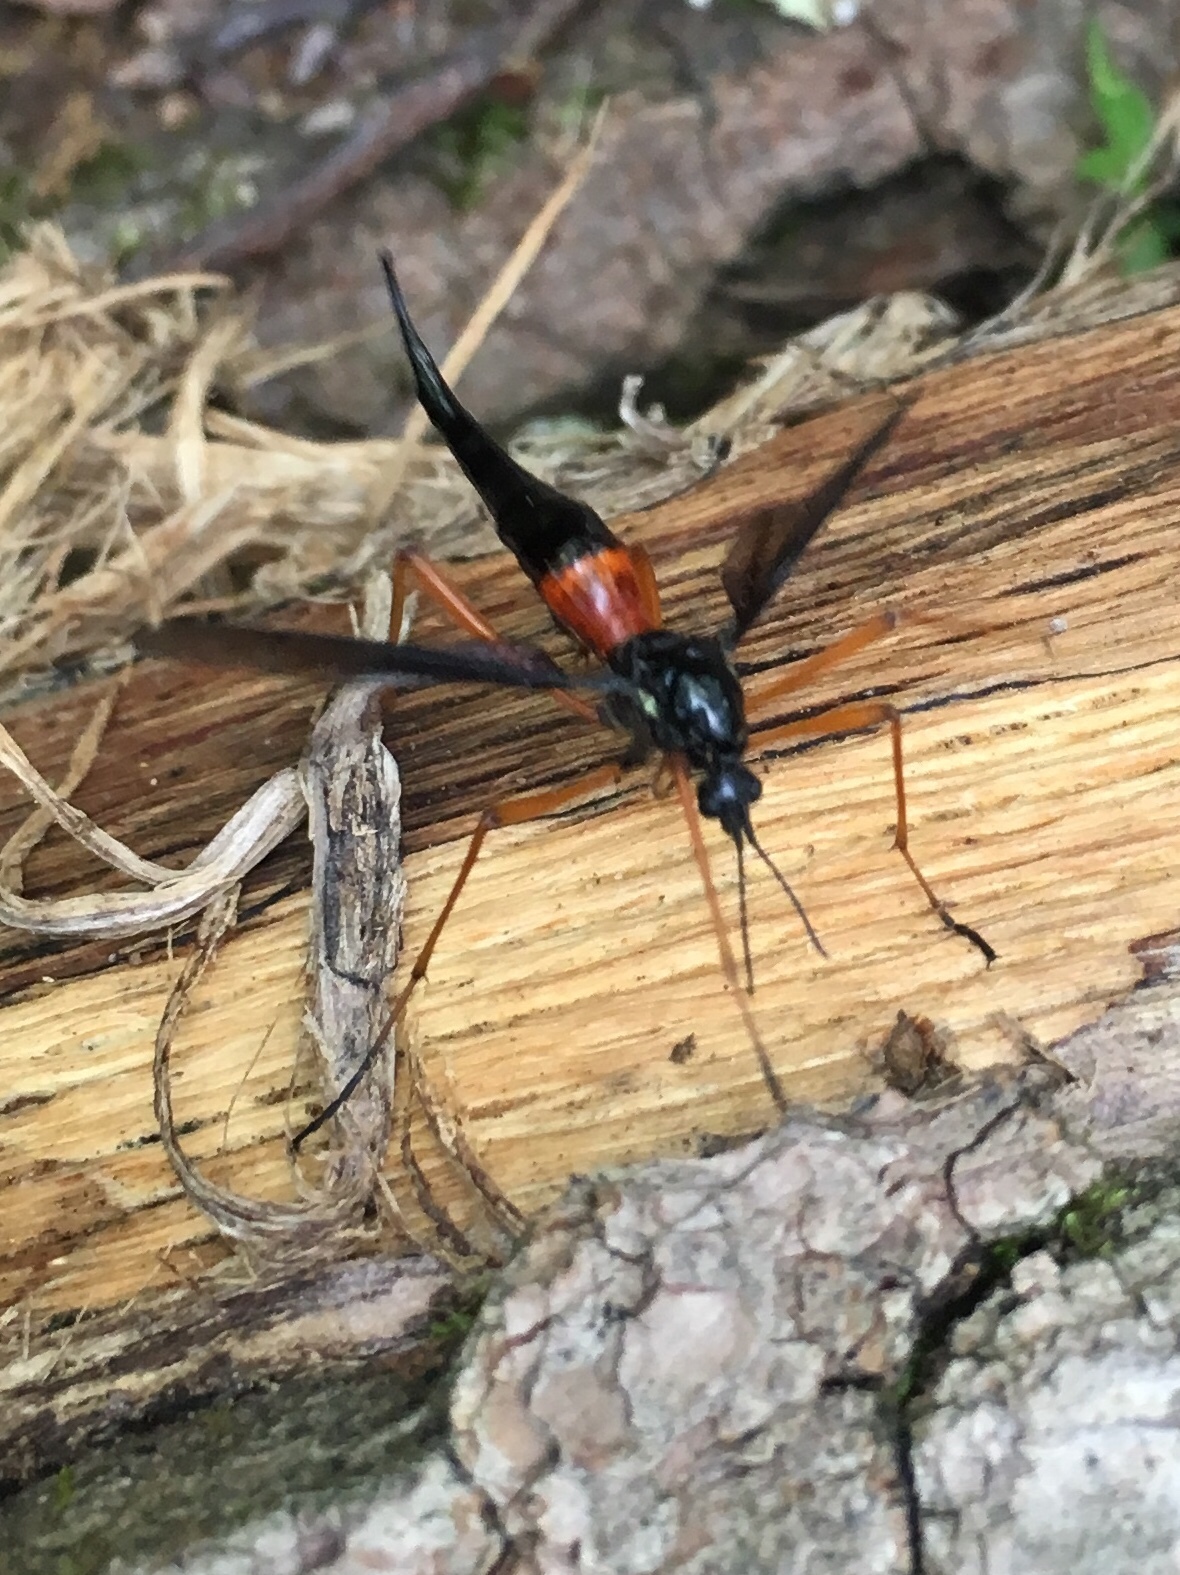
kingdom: Animalia
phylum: Arthropoda
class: Insecta
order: Diptera
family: Tipulidae
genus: Tanyptera
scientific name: Tanyptera dorsalis
